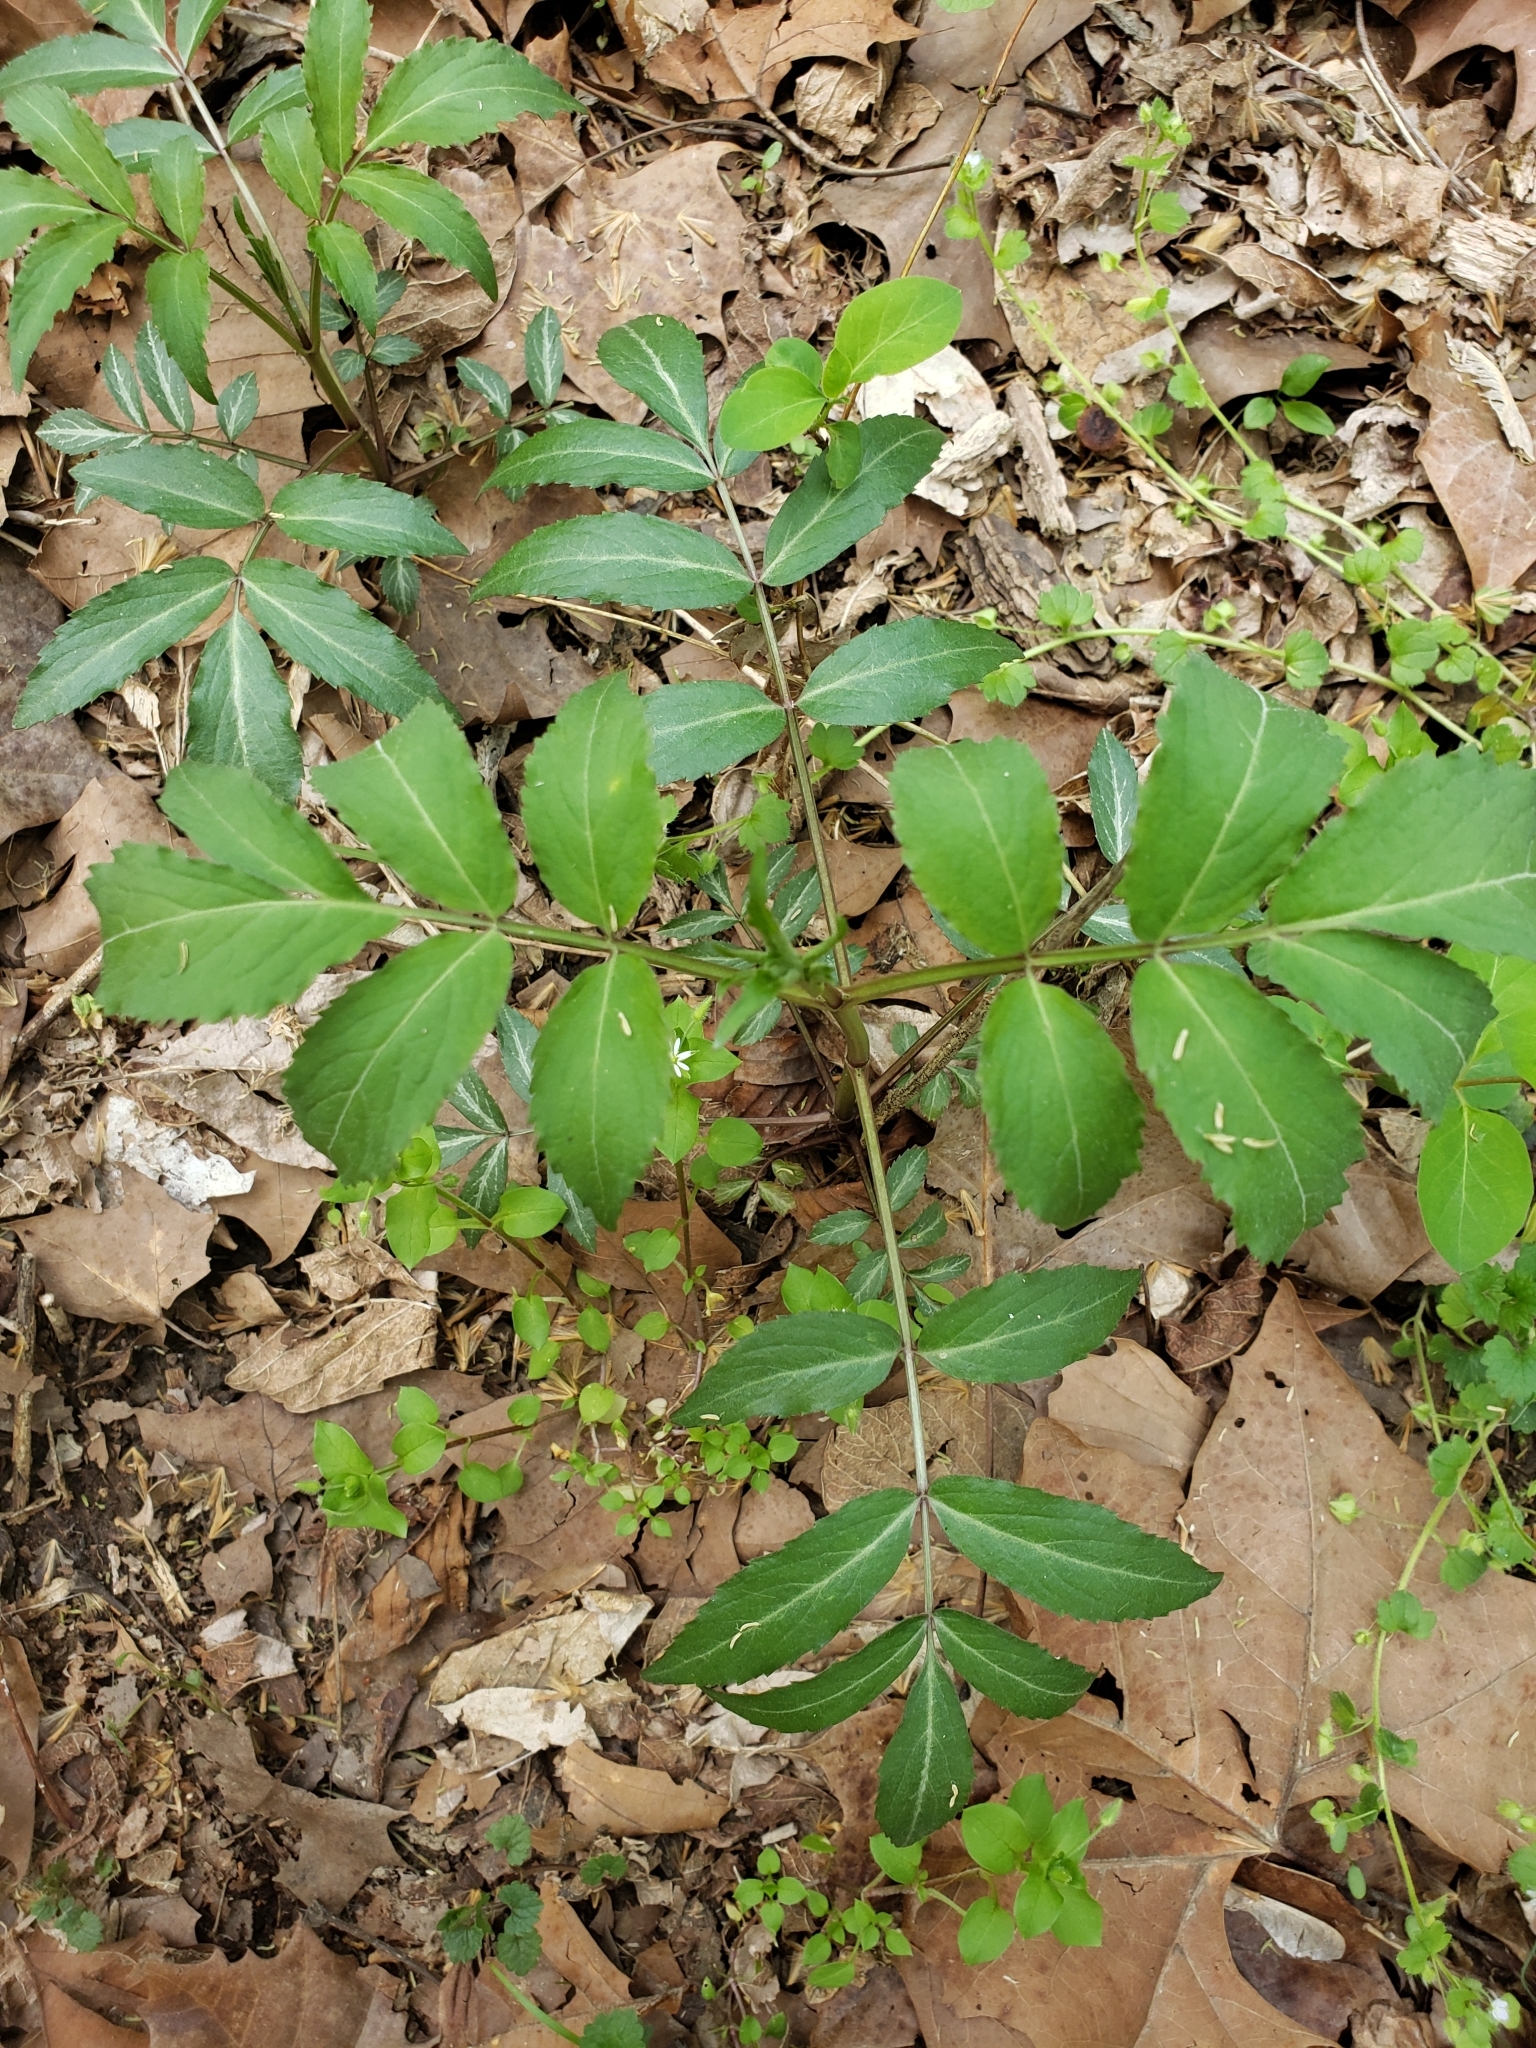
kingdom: Plantae
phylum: Tracheophyta
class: Magnoliopsida
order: Dipsacales
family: Viburnaceae
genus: Sambucus
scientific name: Sambucus canadensis
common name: American elder
